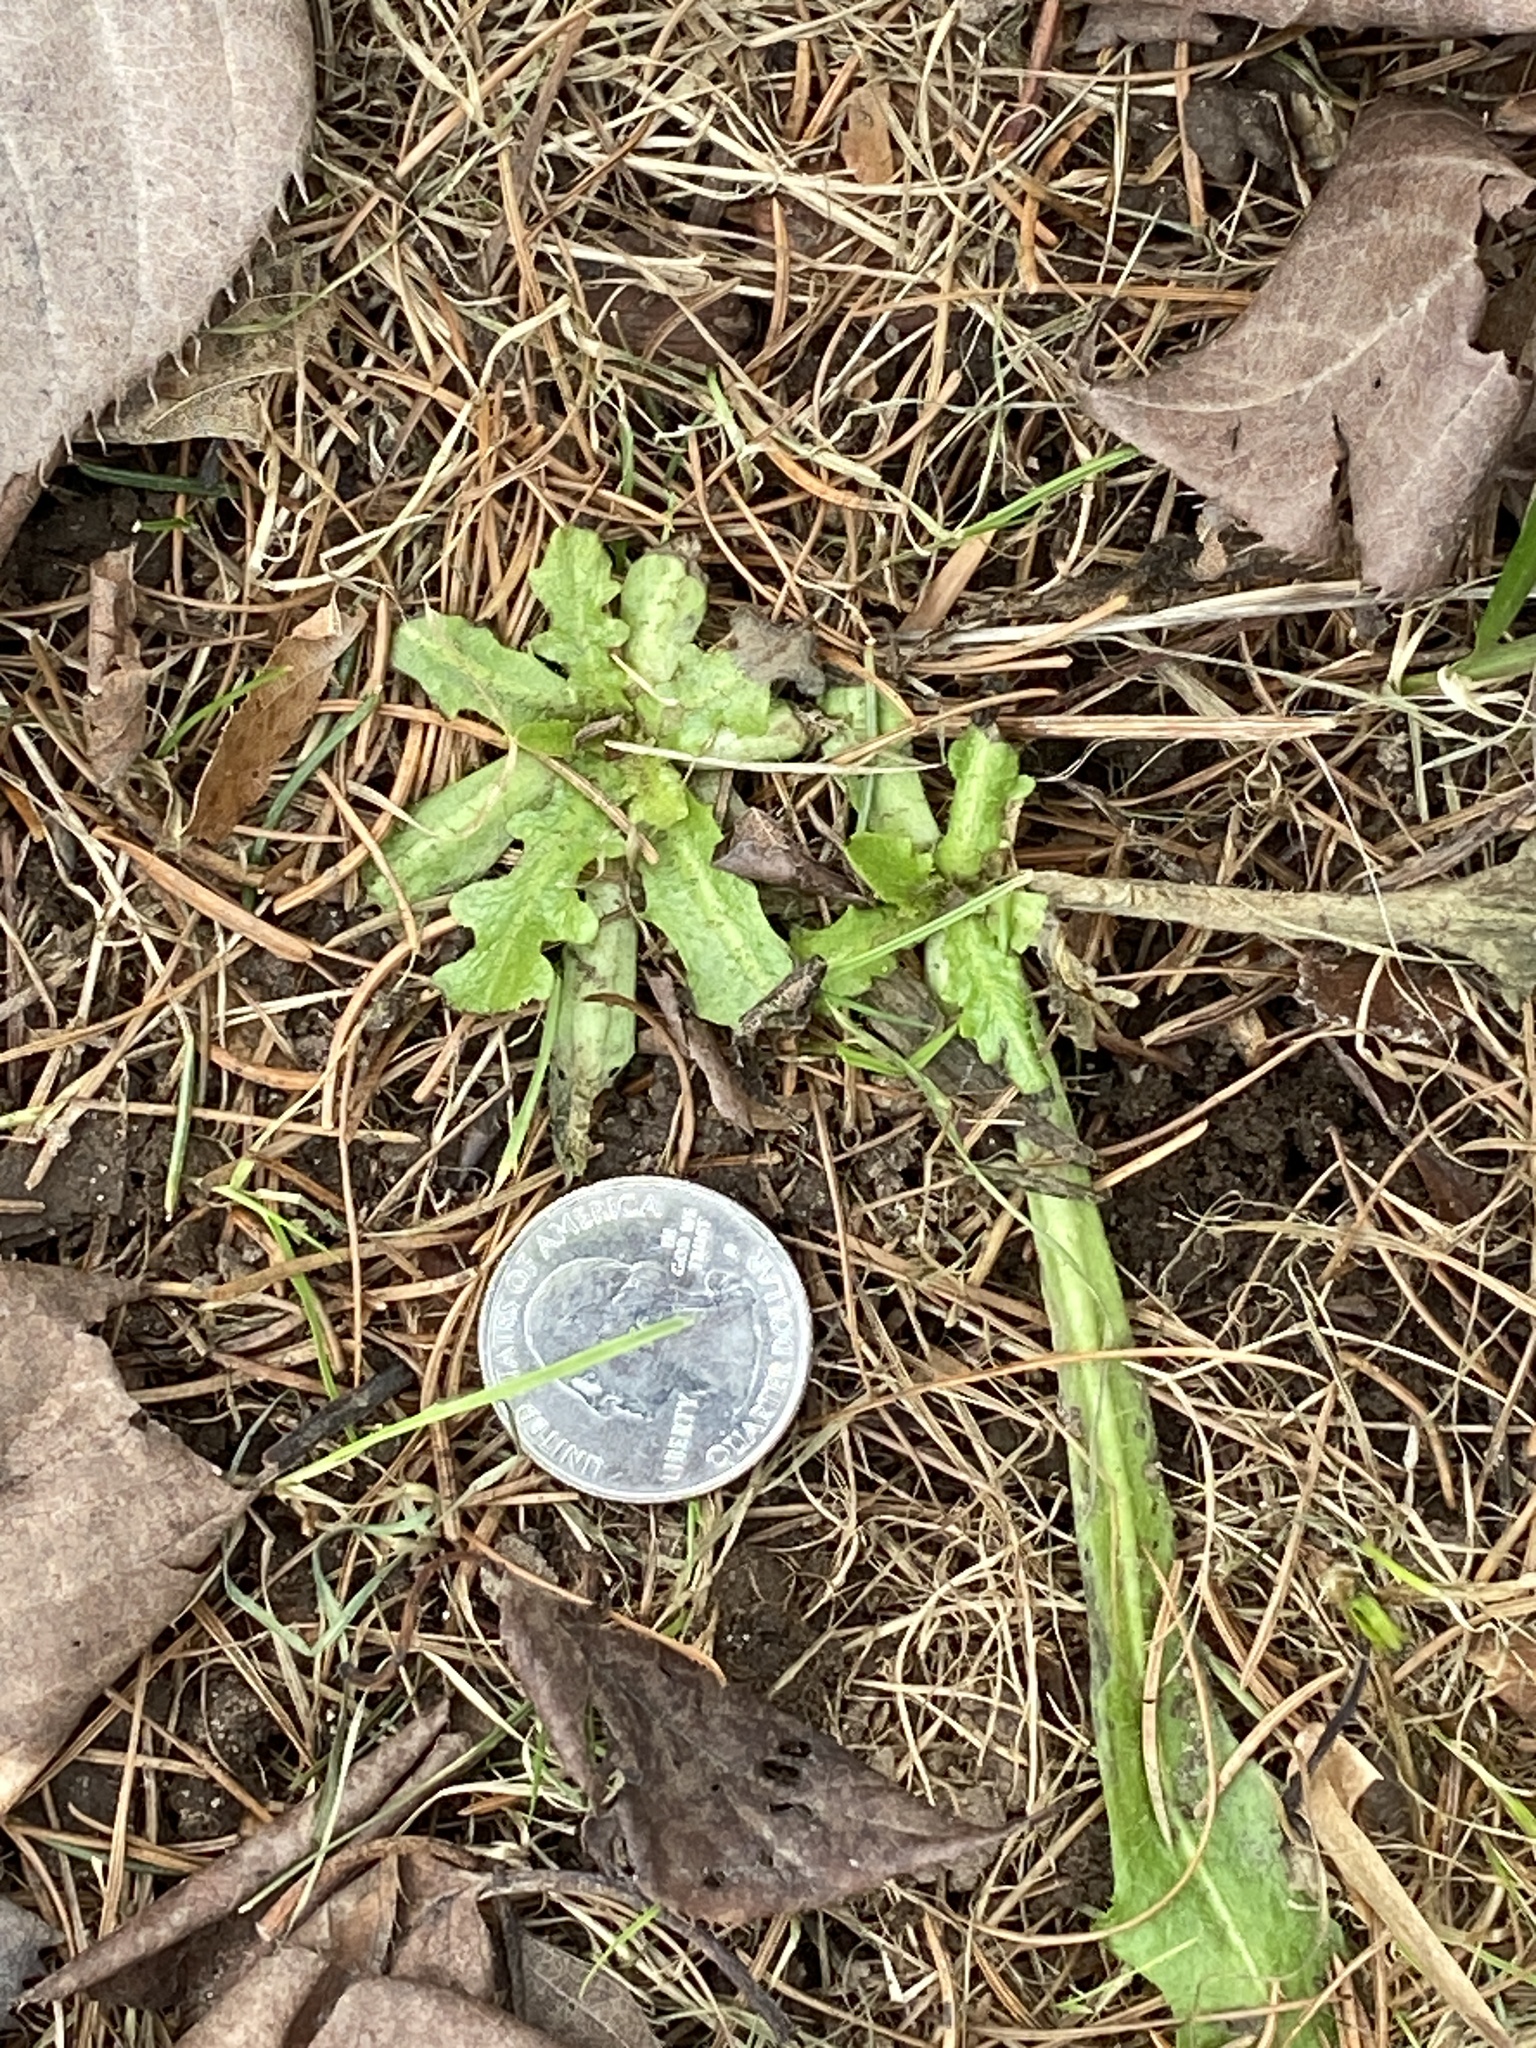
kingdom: Plantae
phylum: Tracheophyta
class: Magnoliopsida
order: Asterales
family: Asteraceae
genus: Hypochaeris
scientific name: Hypochaeris radicata
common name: Flatweed
